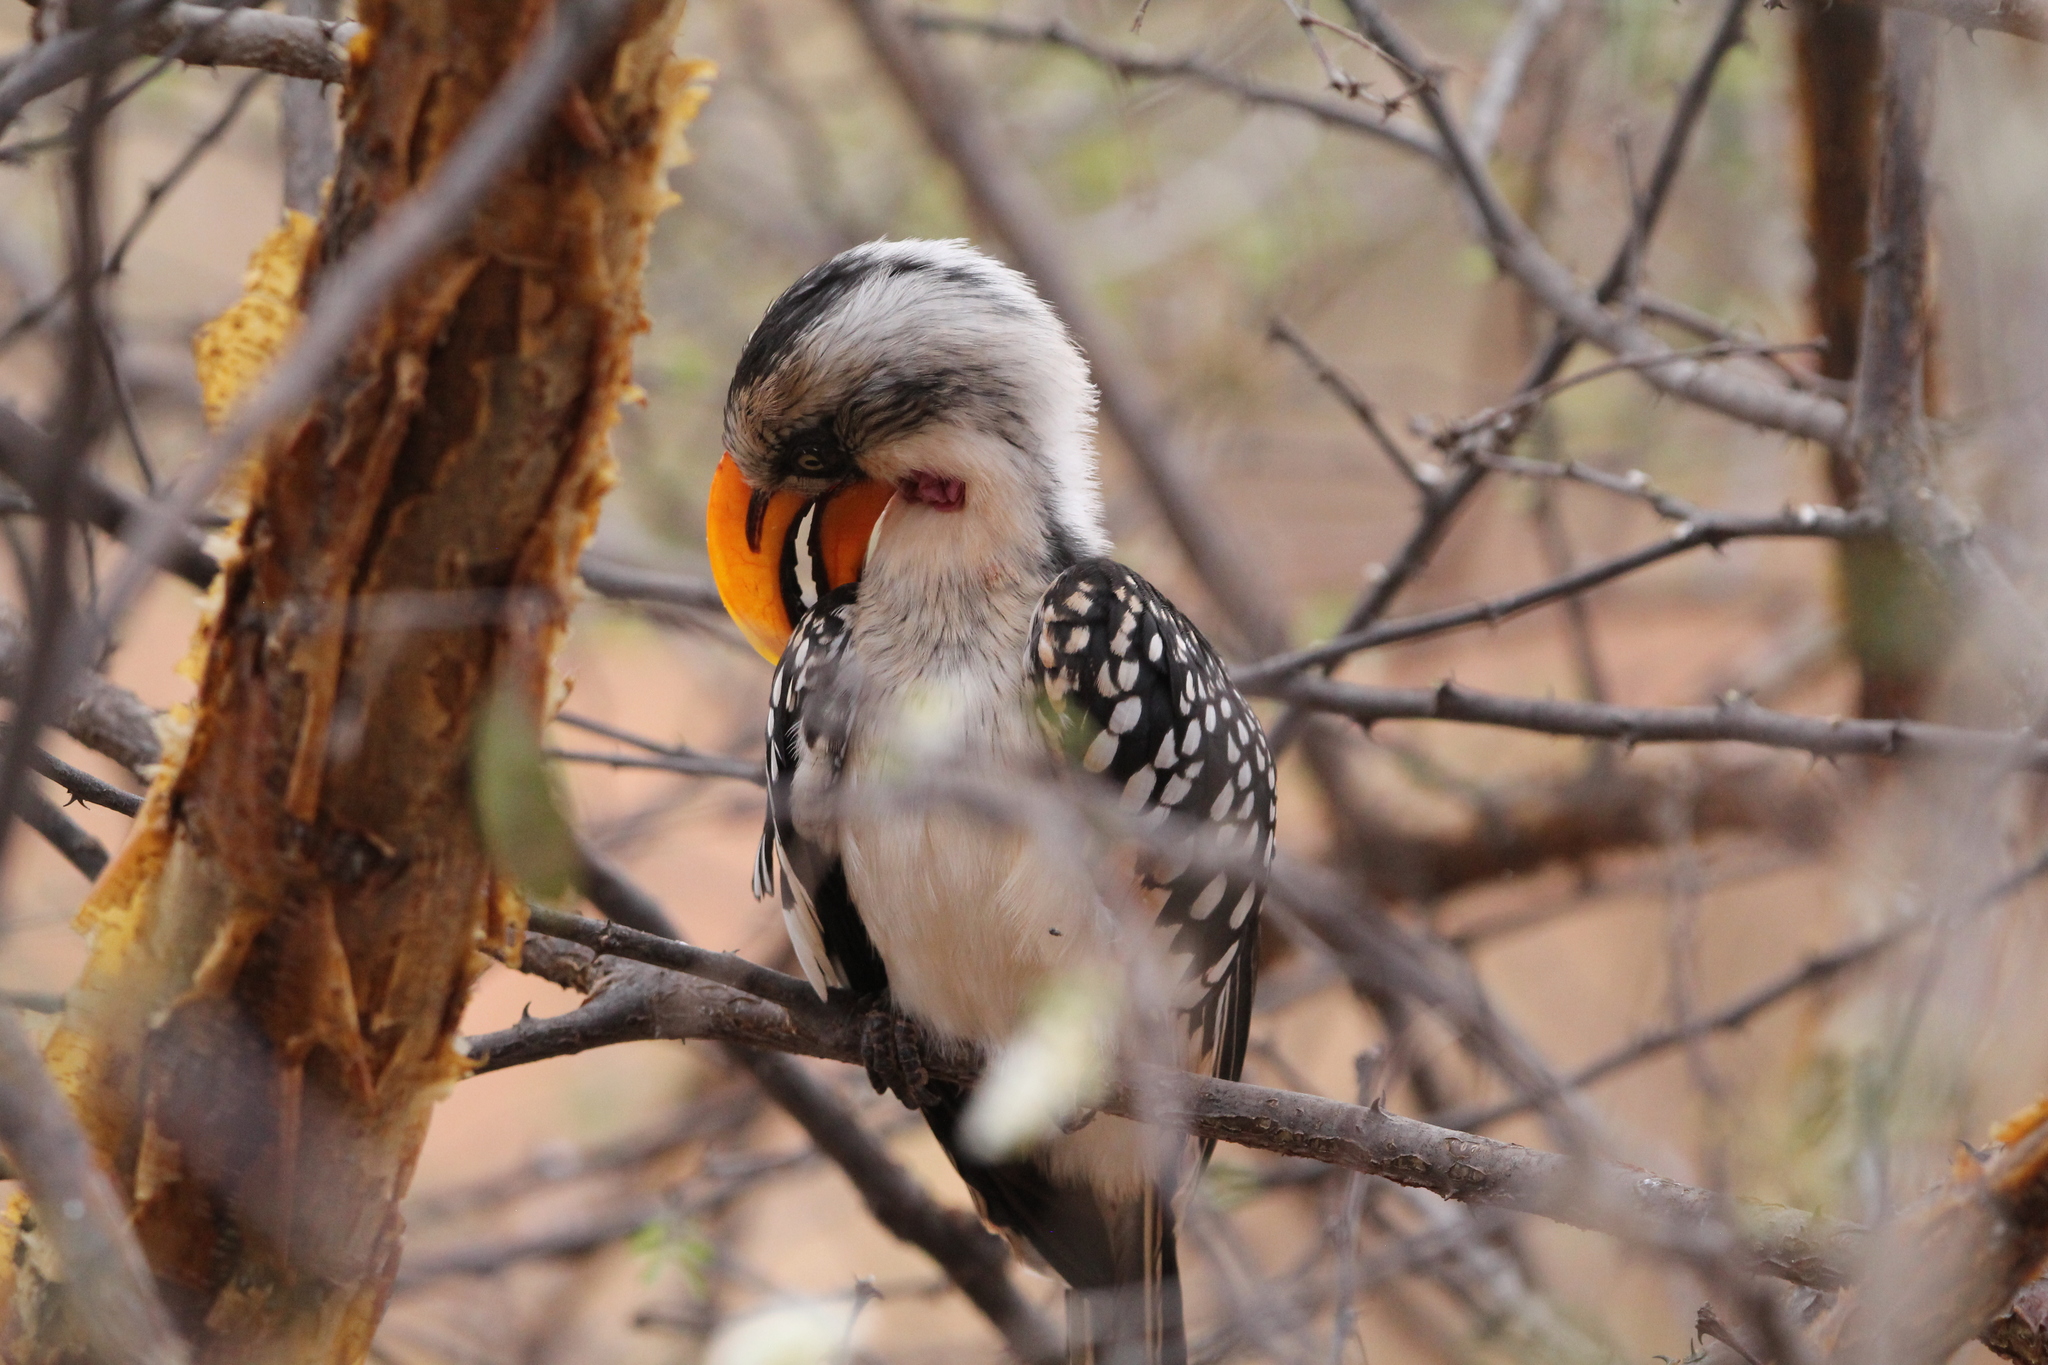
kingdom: Animalia
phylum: Chordata
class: Aves
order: Bucerotiformes
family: Bucerotidae
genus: Tockus
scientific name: Tockus flavirostris
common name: Eastern yellow-billed hornbill
